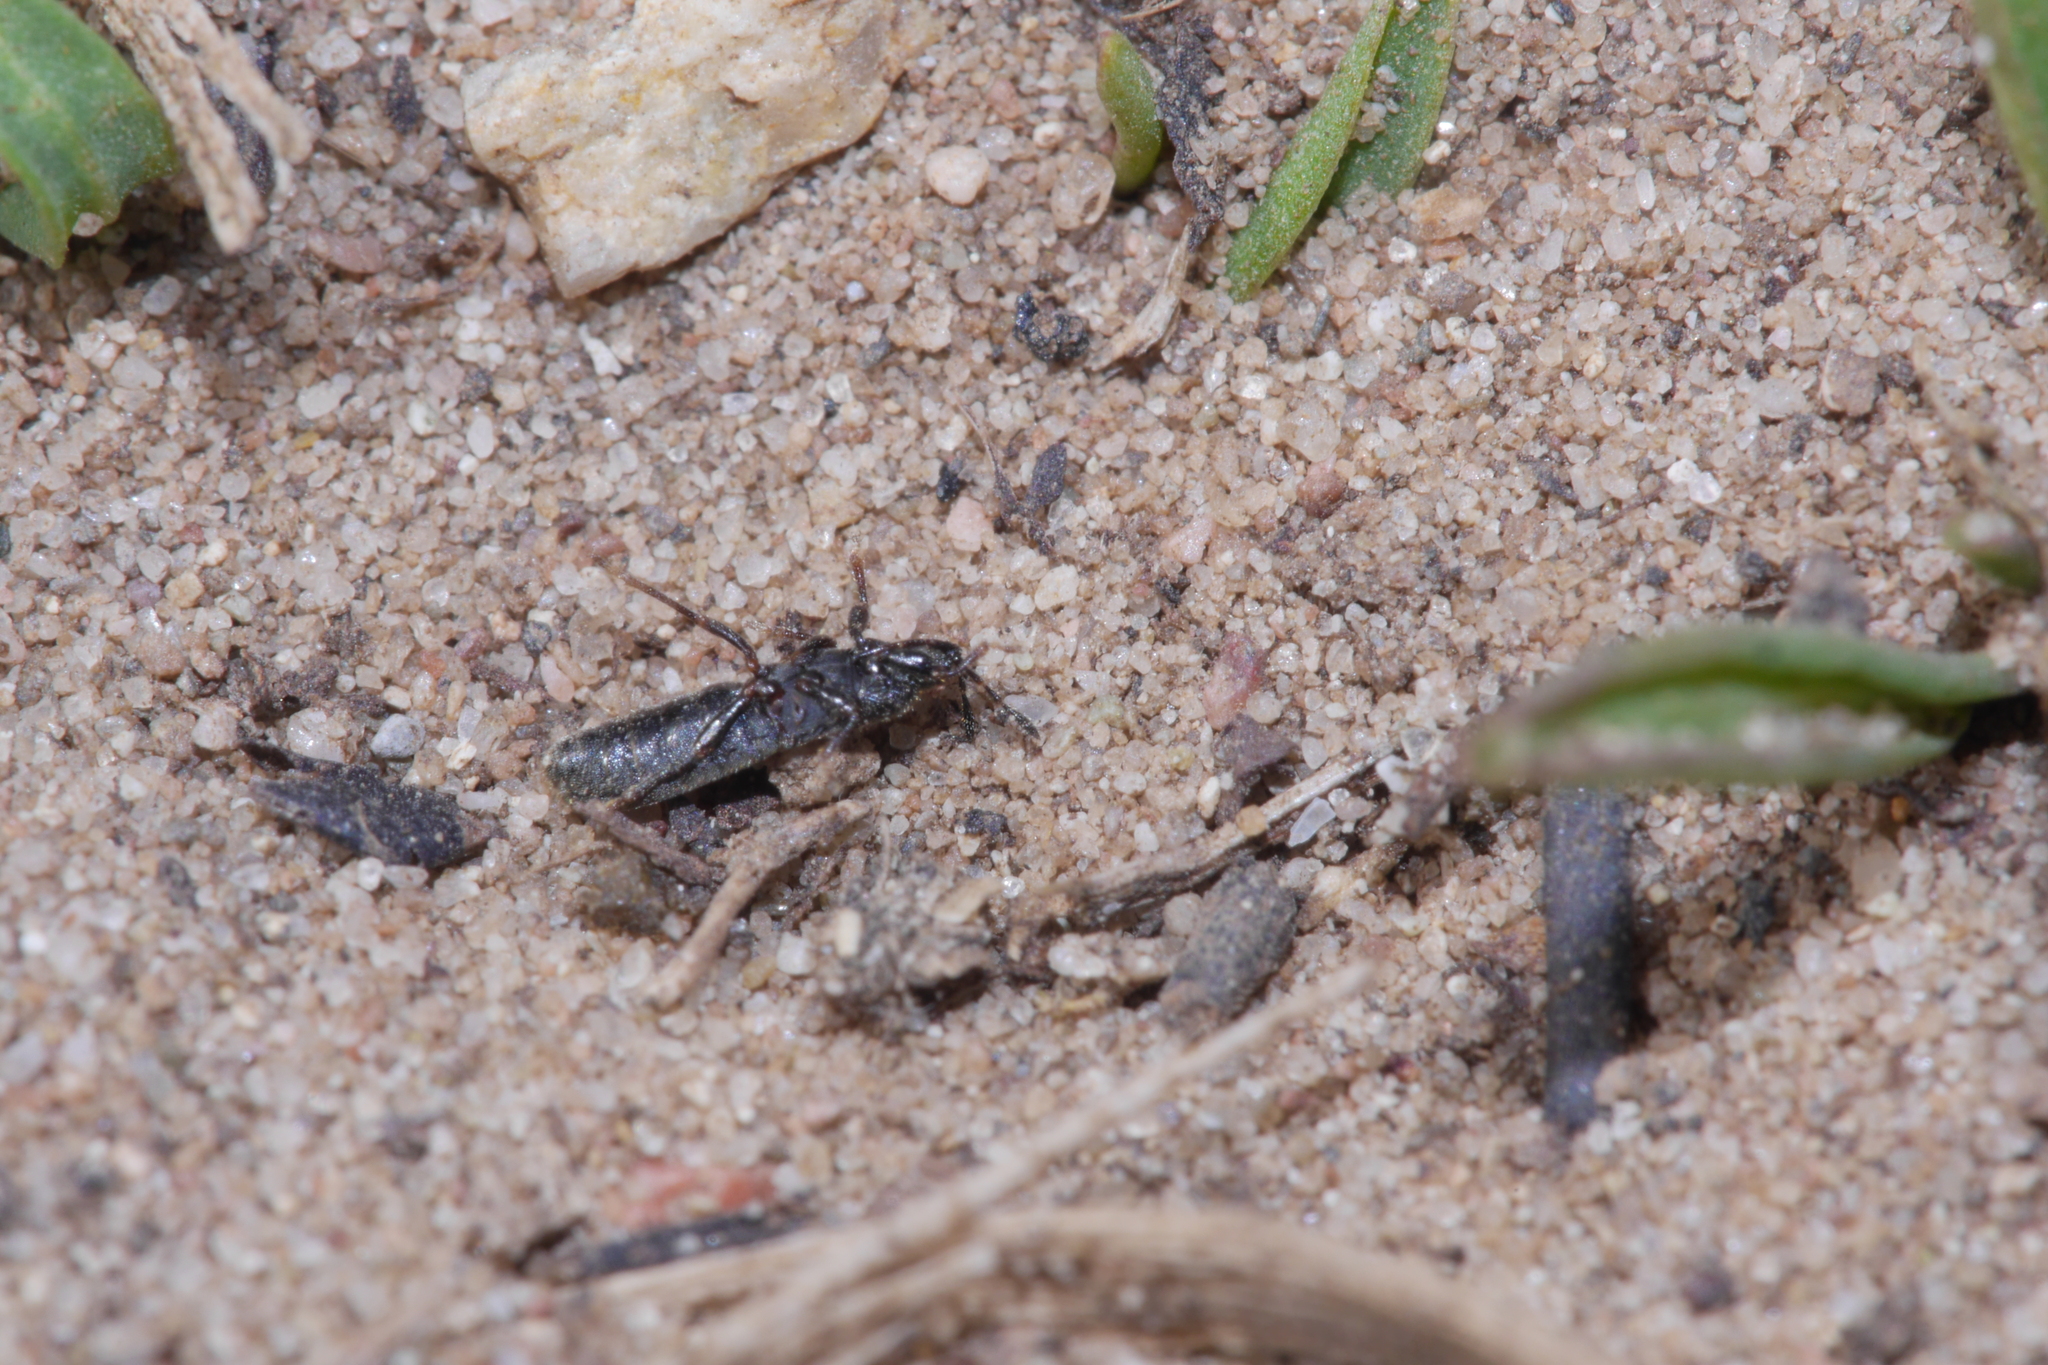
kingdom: Animalia
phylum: Arthropoda
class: Insecta
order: Hemiptera
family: Blissidae
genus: Dimorphopterus
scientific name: Dimorphopterus spinolae
